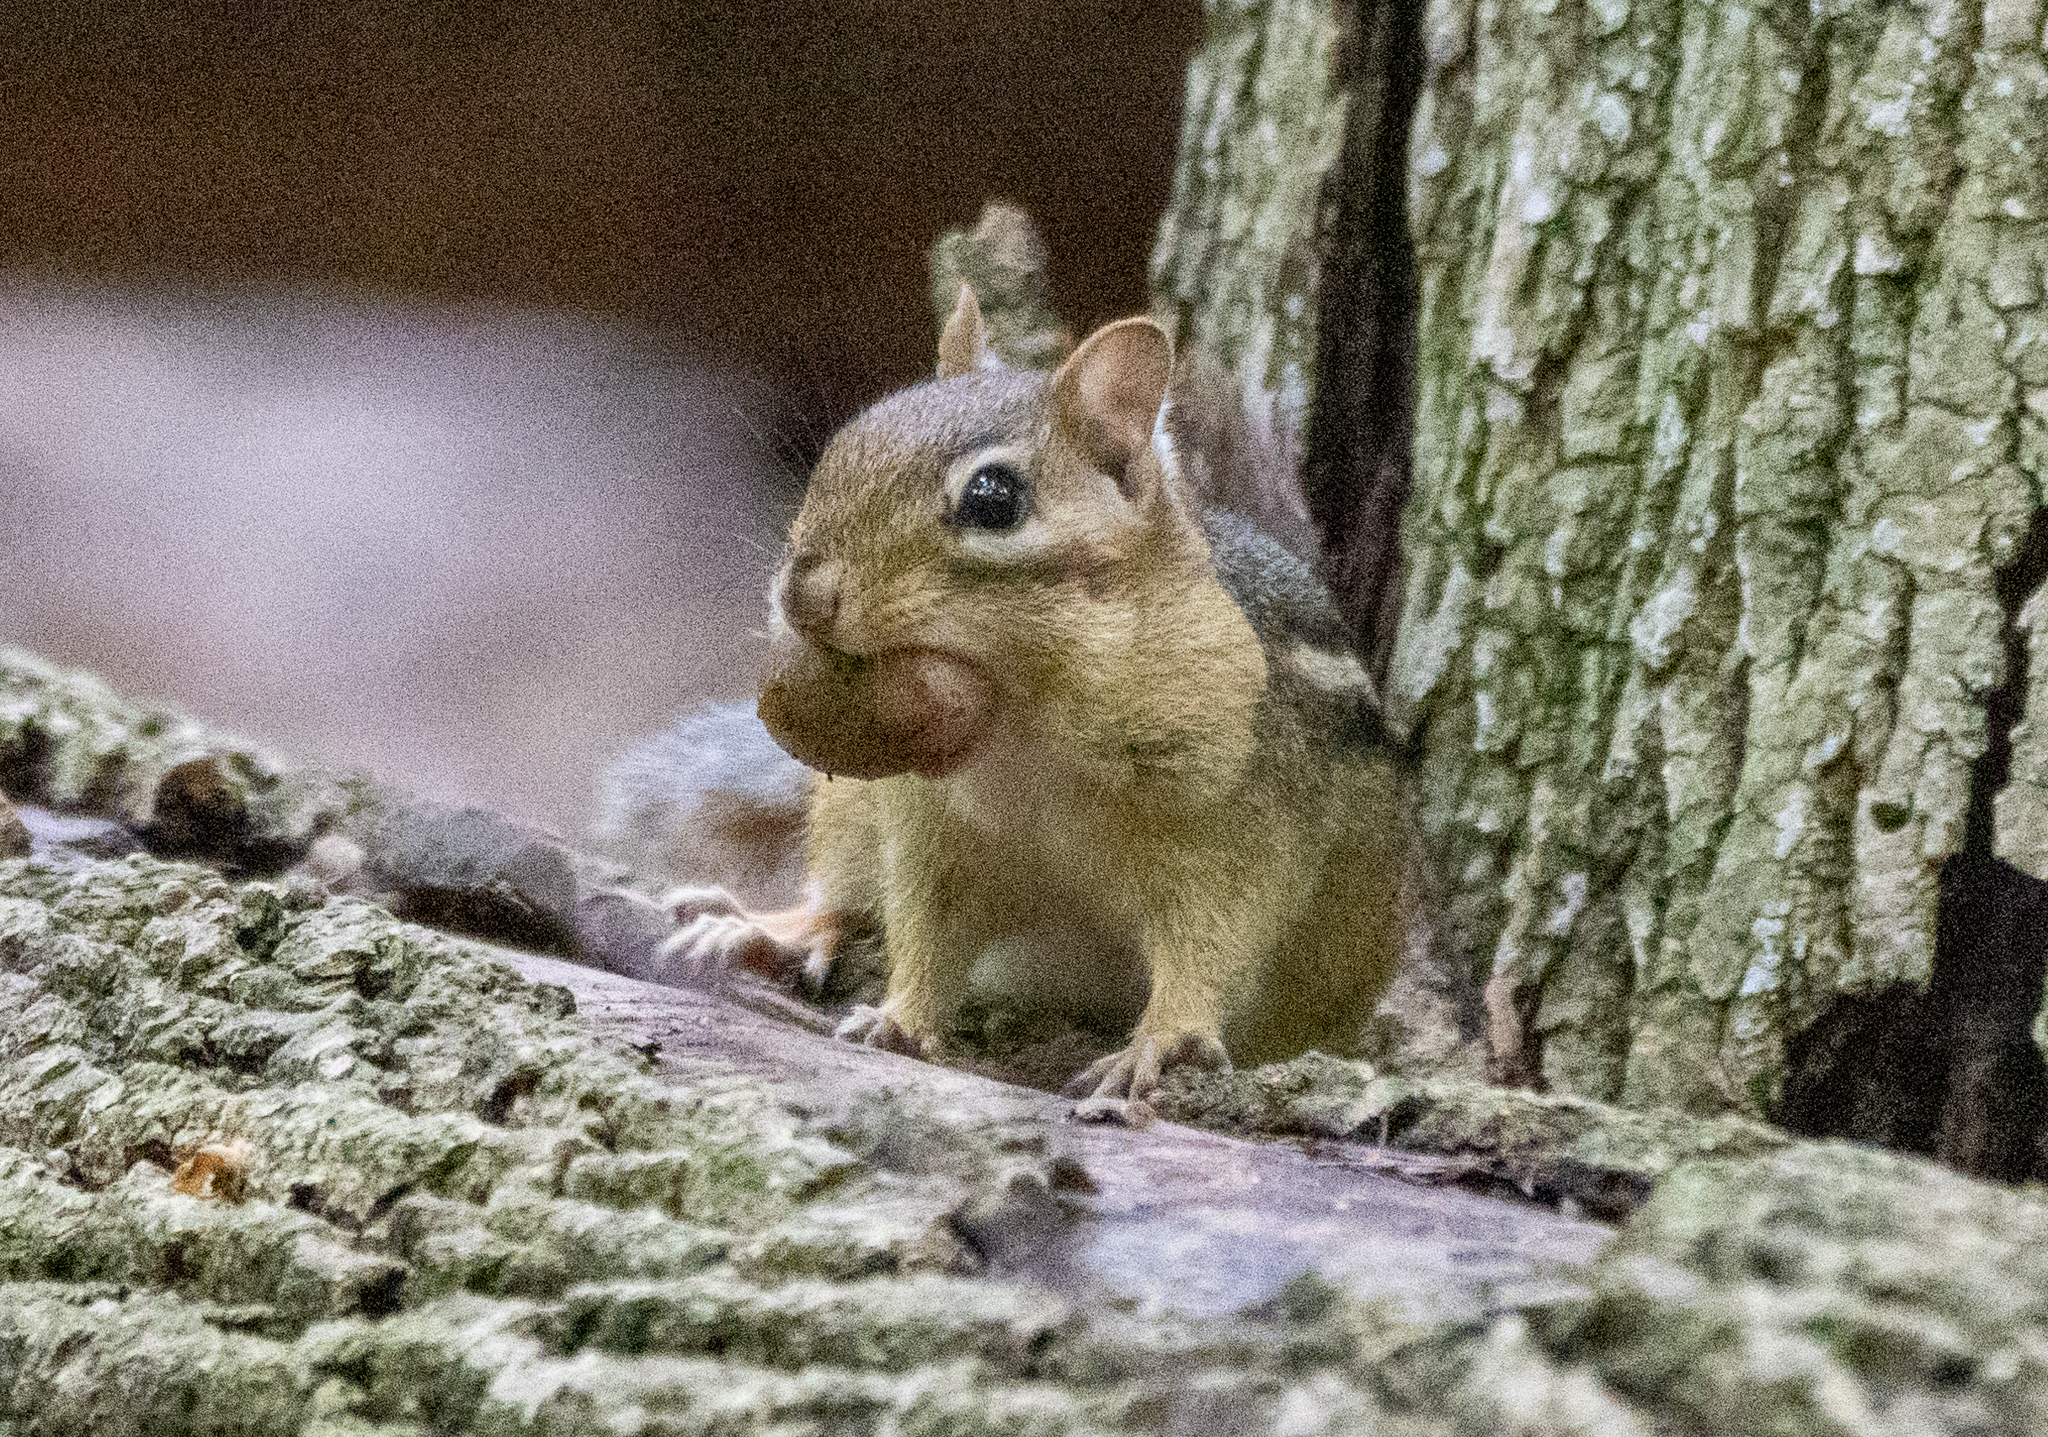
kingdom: Animalia
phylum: Chordata
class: Mammalia
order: Rodentia
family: Sciuridae
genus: Tamias
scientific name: Tamias striatus
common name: Eastern chipmunk
